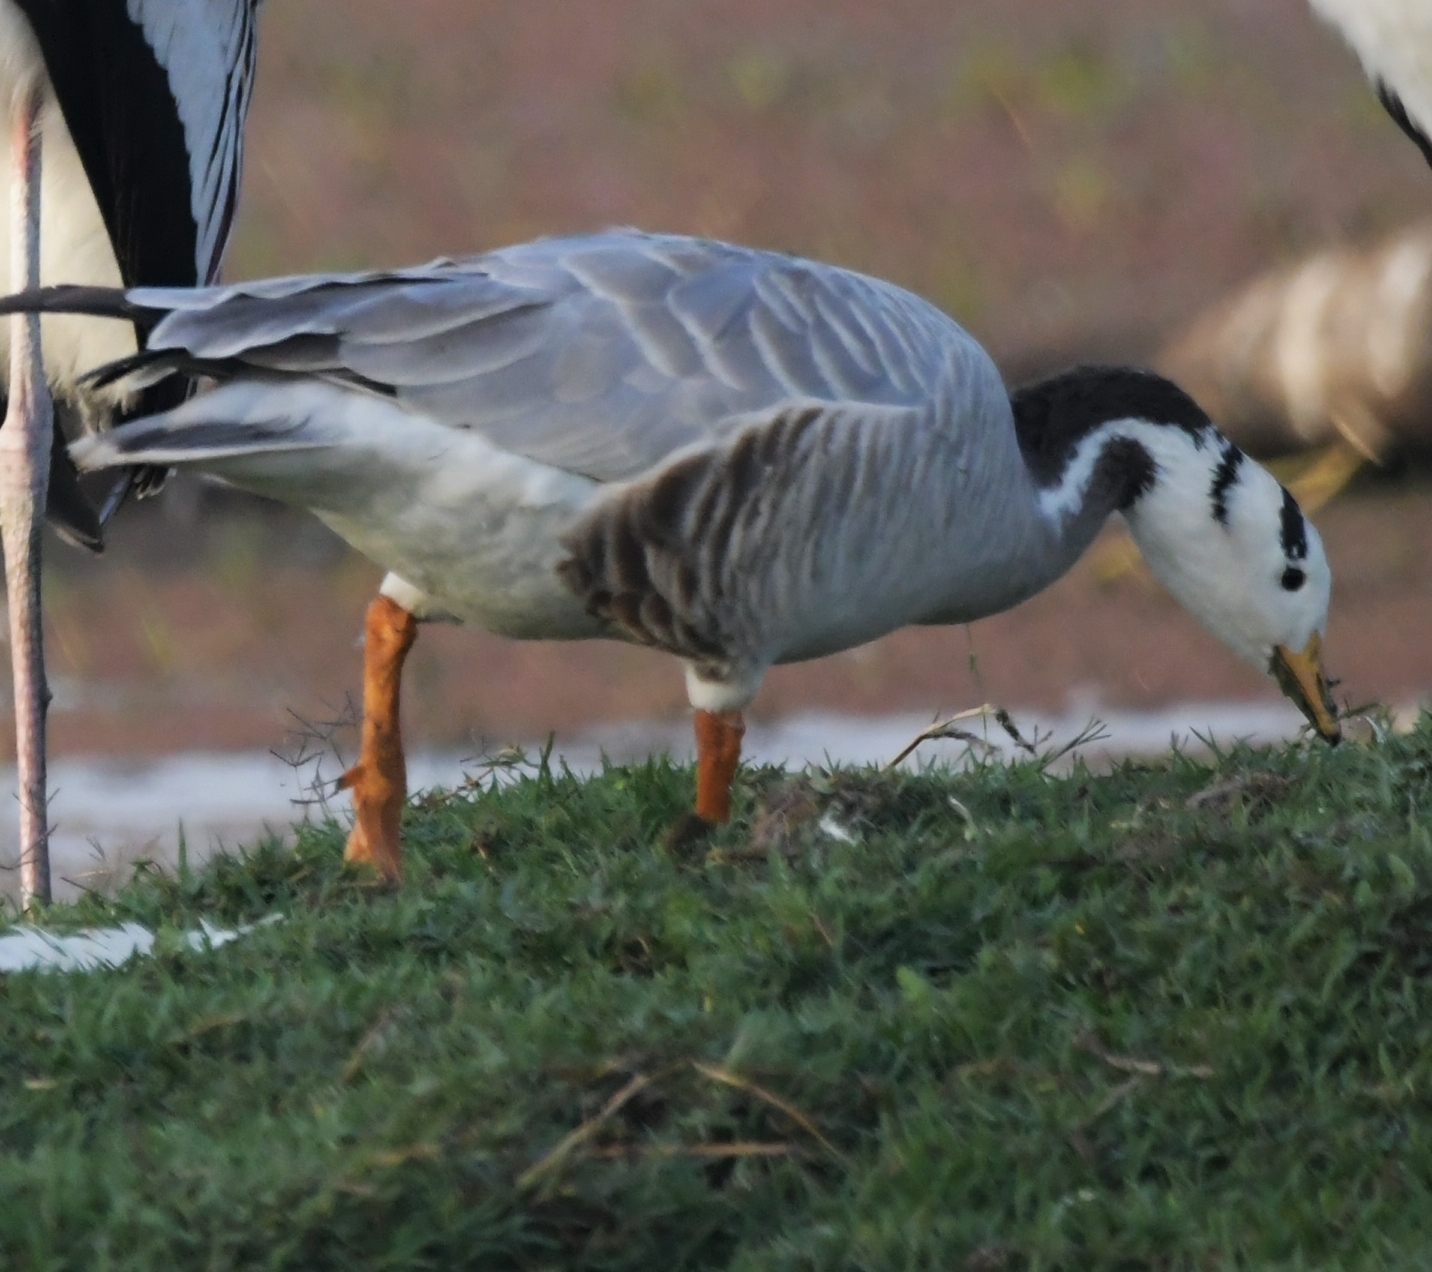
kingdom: Animalia
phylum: Chordata
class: Aves
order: Anseriformes
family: Anatidae
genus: Anser
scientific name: Anser indicus
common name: Bar-headed goose
